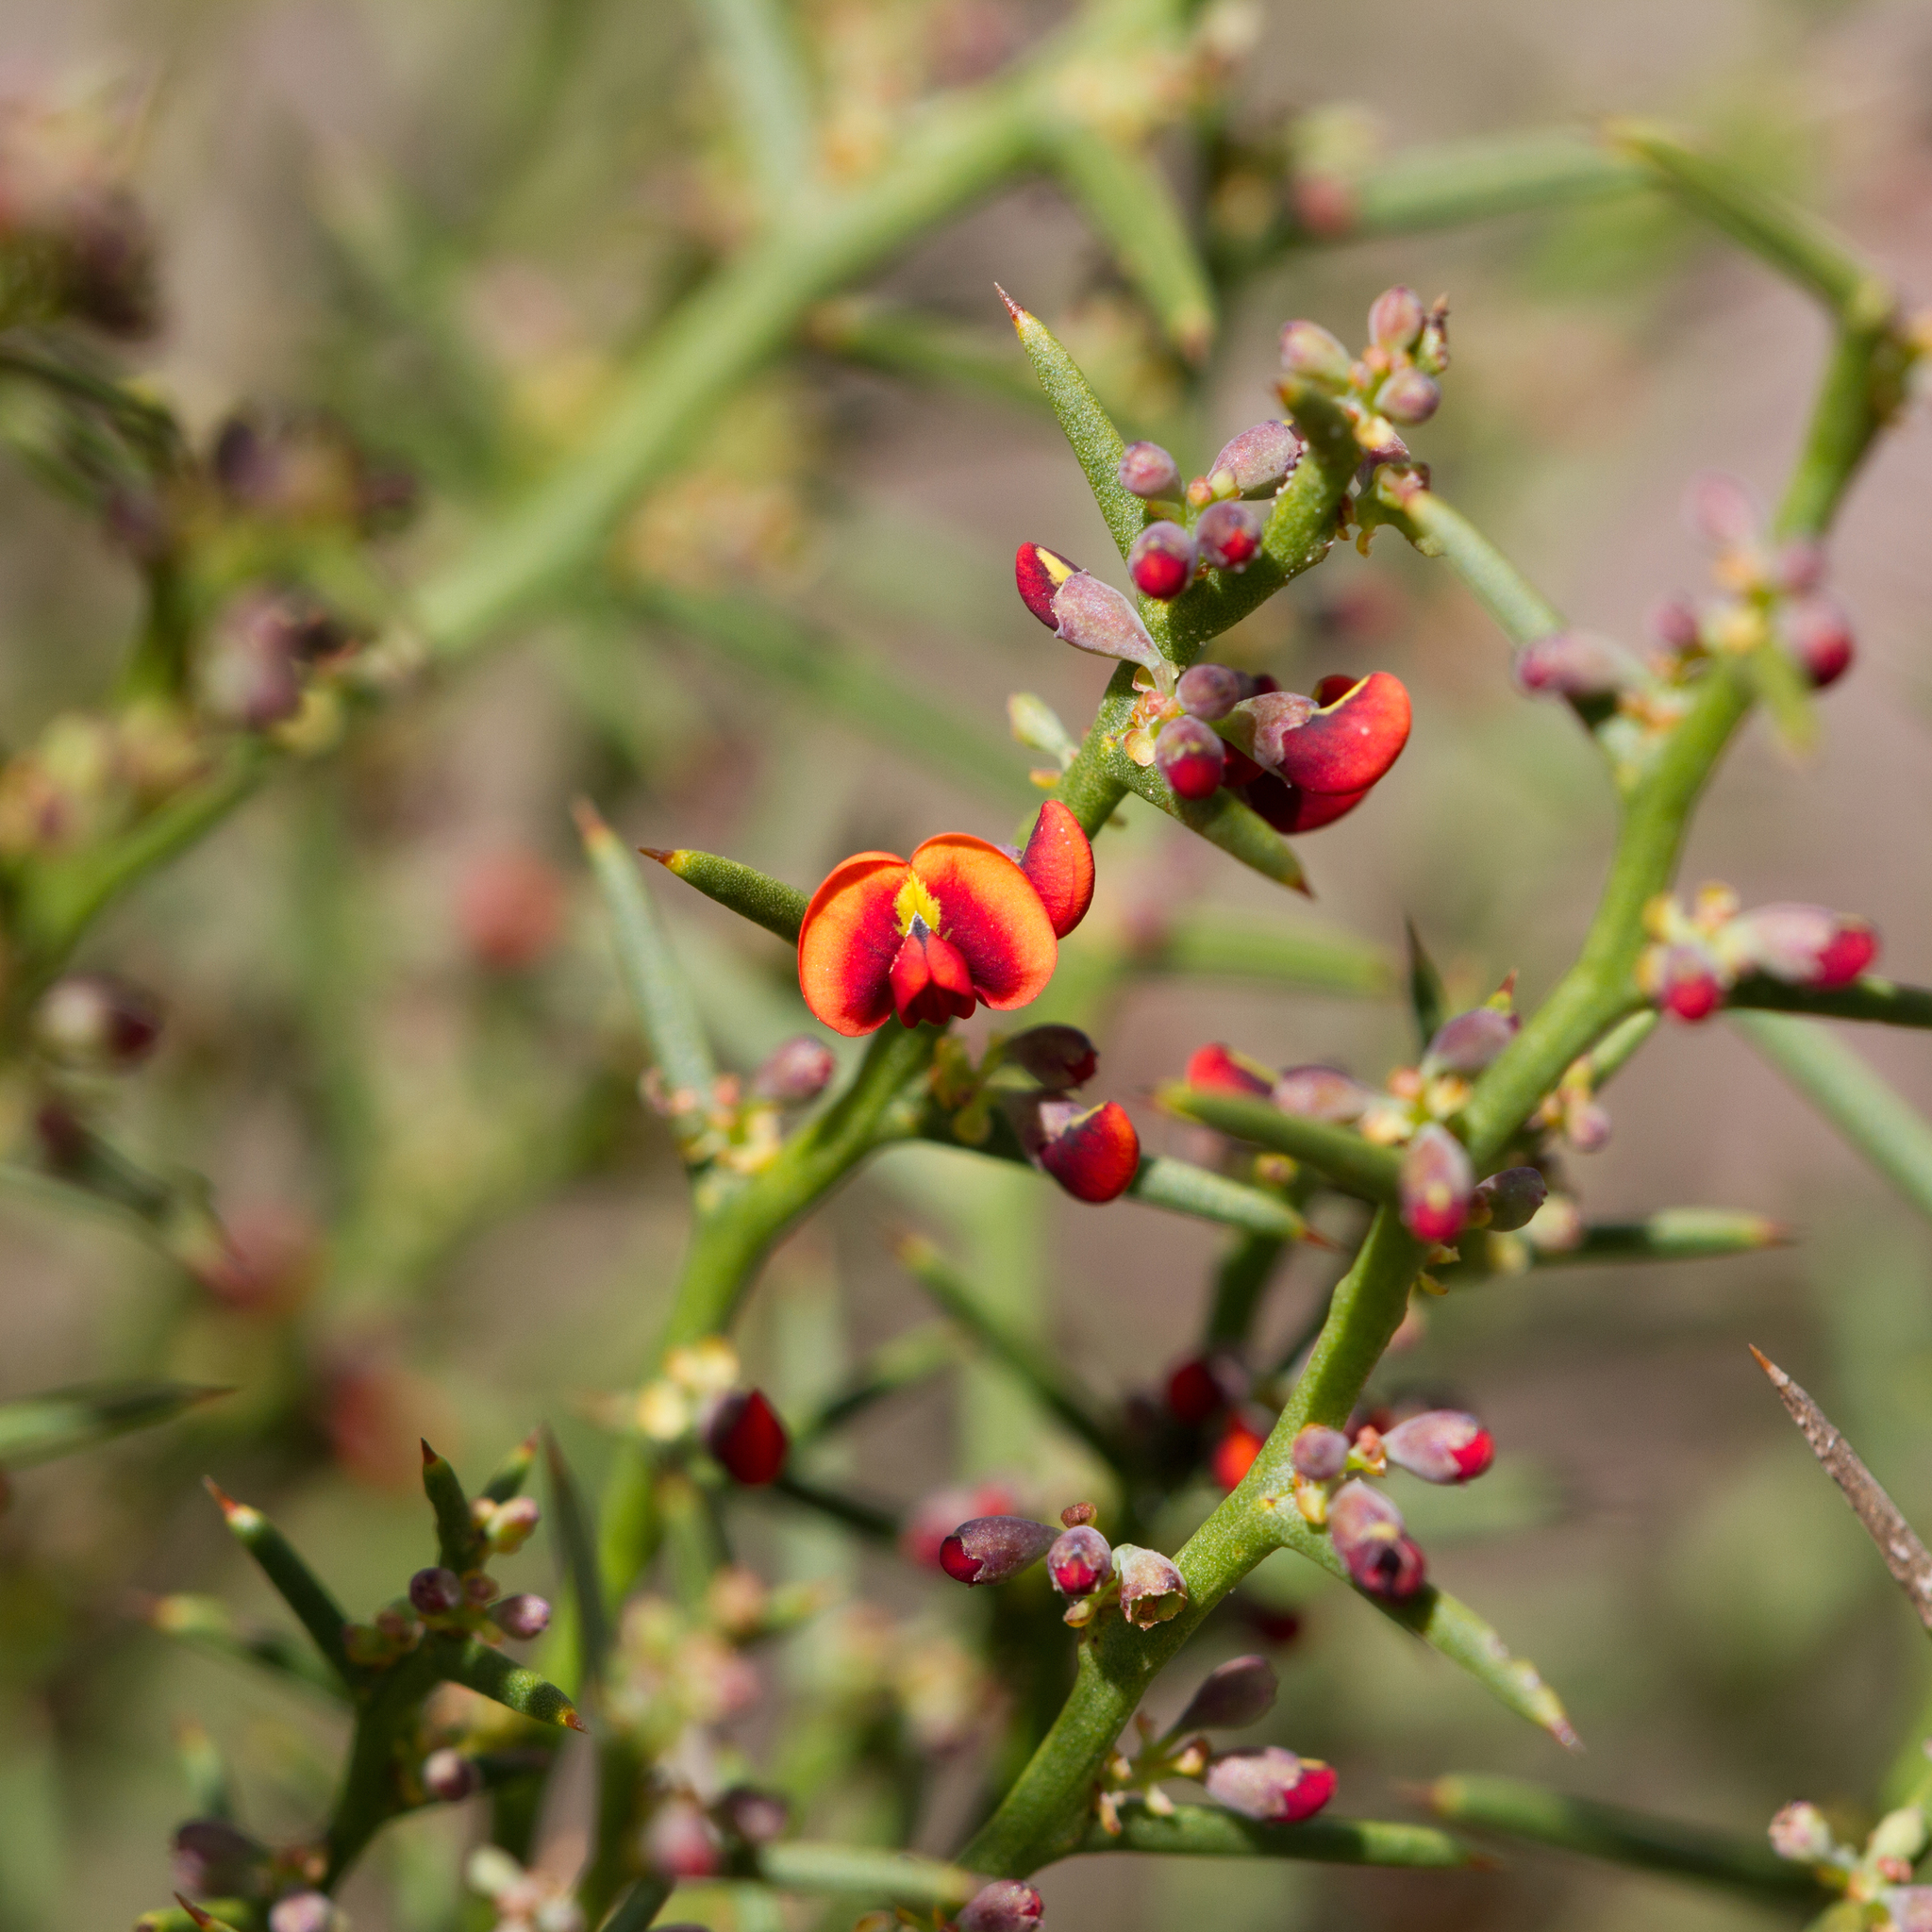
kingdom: Plantae
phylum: Tracheophyta
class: Magnoliopsida
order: Fabales
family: Fabaceae
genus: Daviesia
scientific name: Daviesia devito
